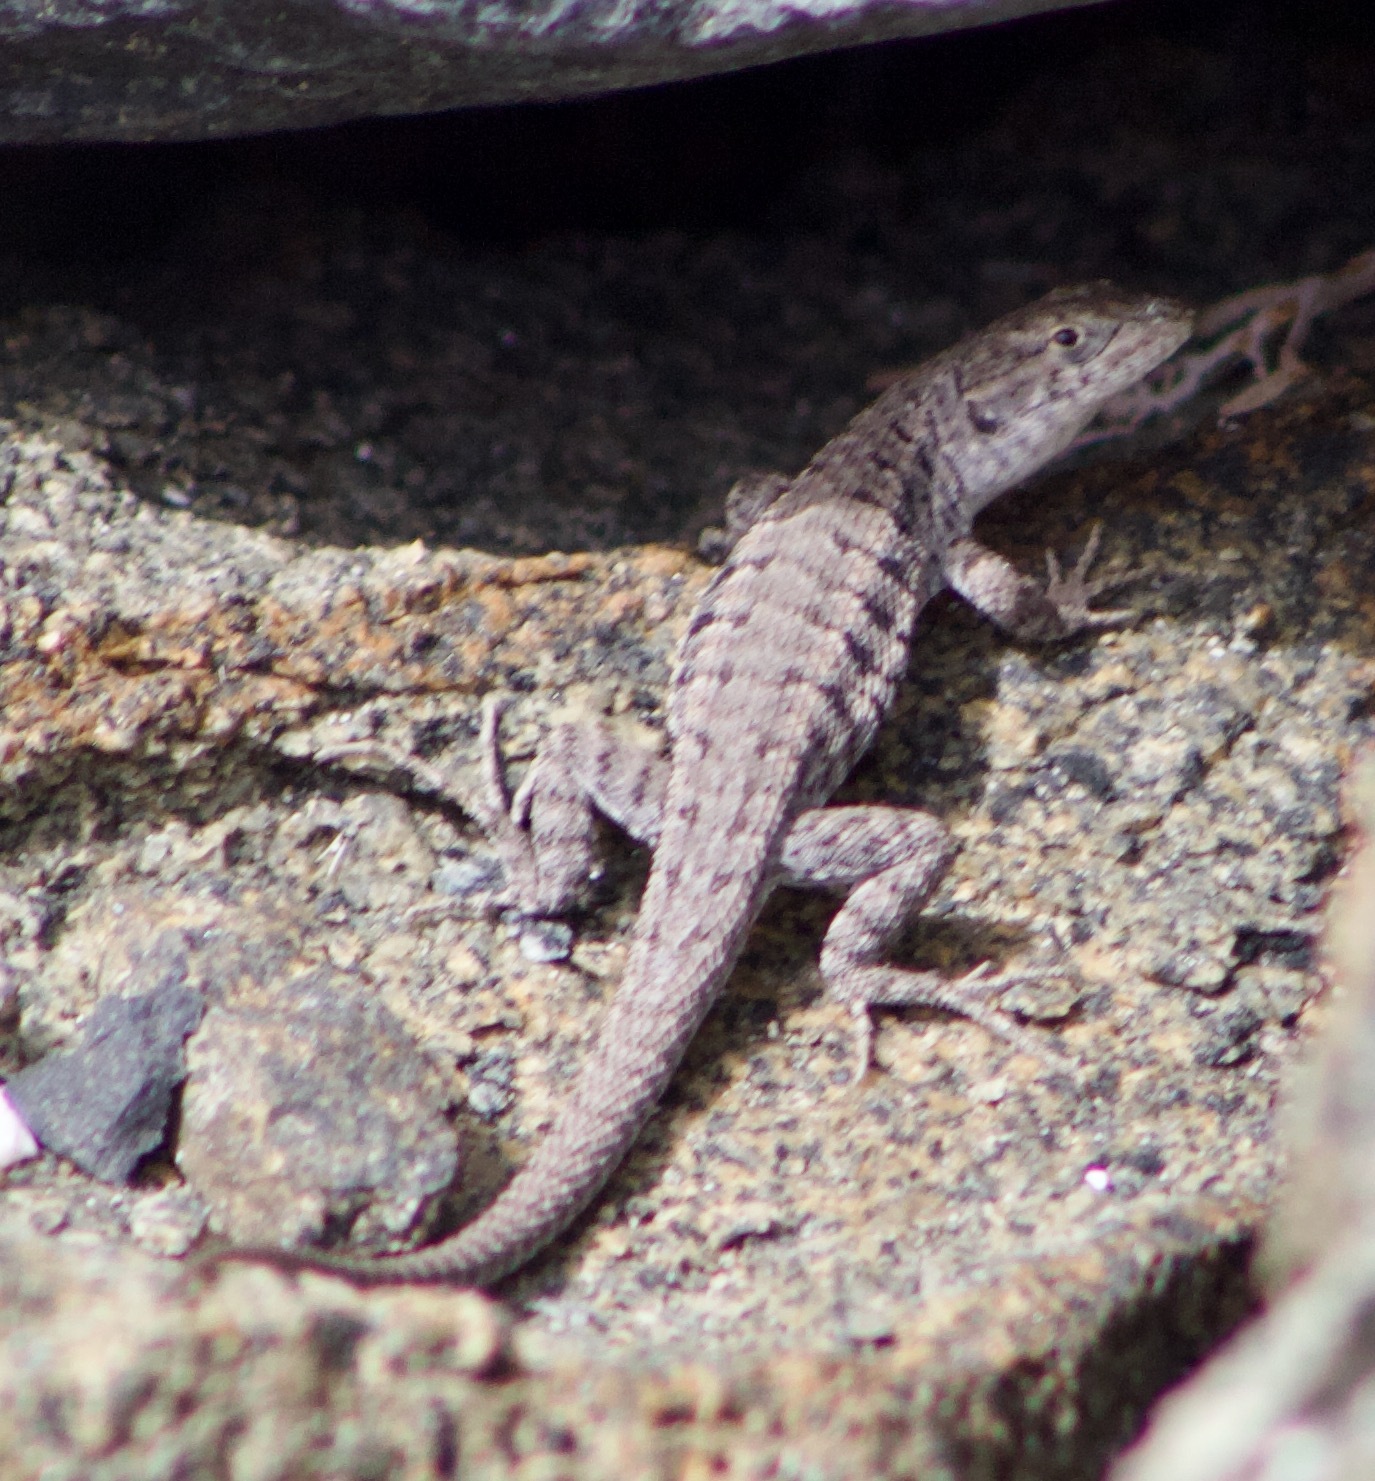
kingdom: Animalia
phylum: Chordata
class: Squamata
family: Liolaemidae
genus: Liolaemus
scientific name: Liolaemus platei
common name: Braided tree iguana
